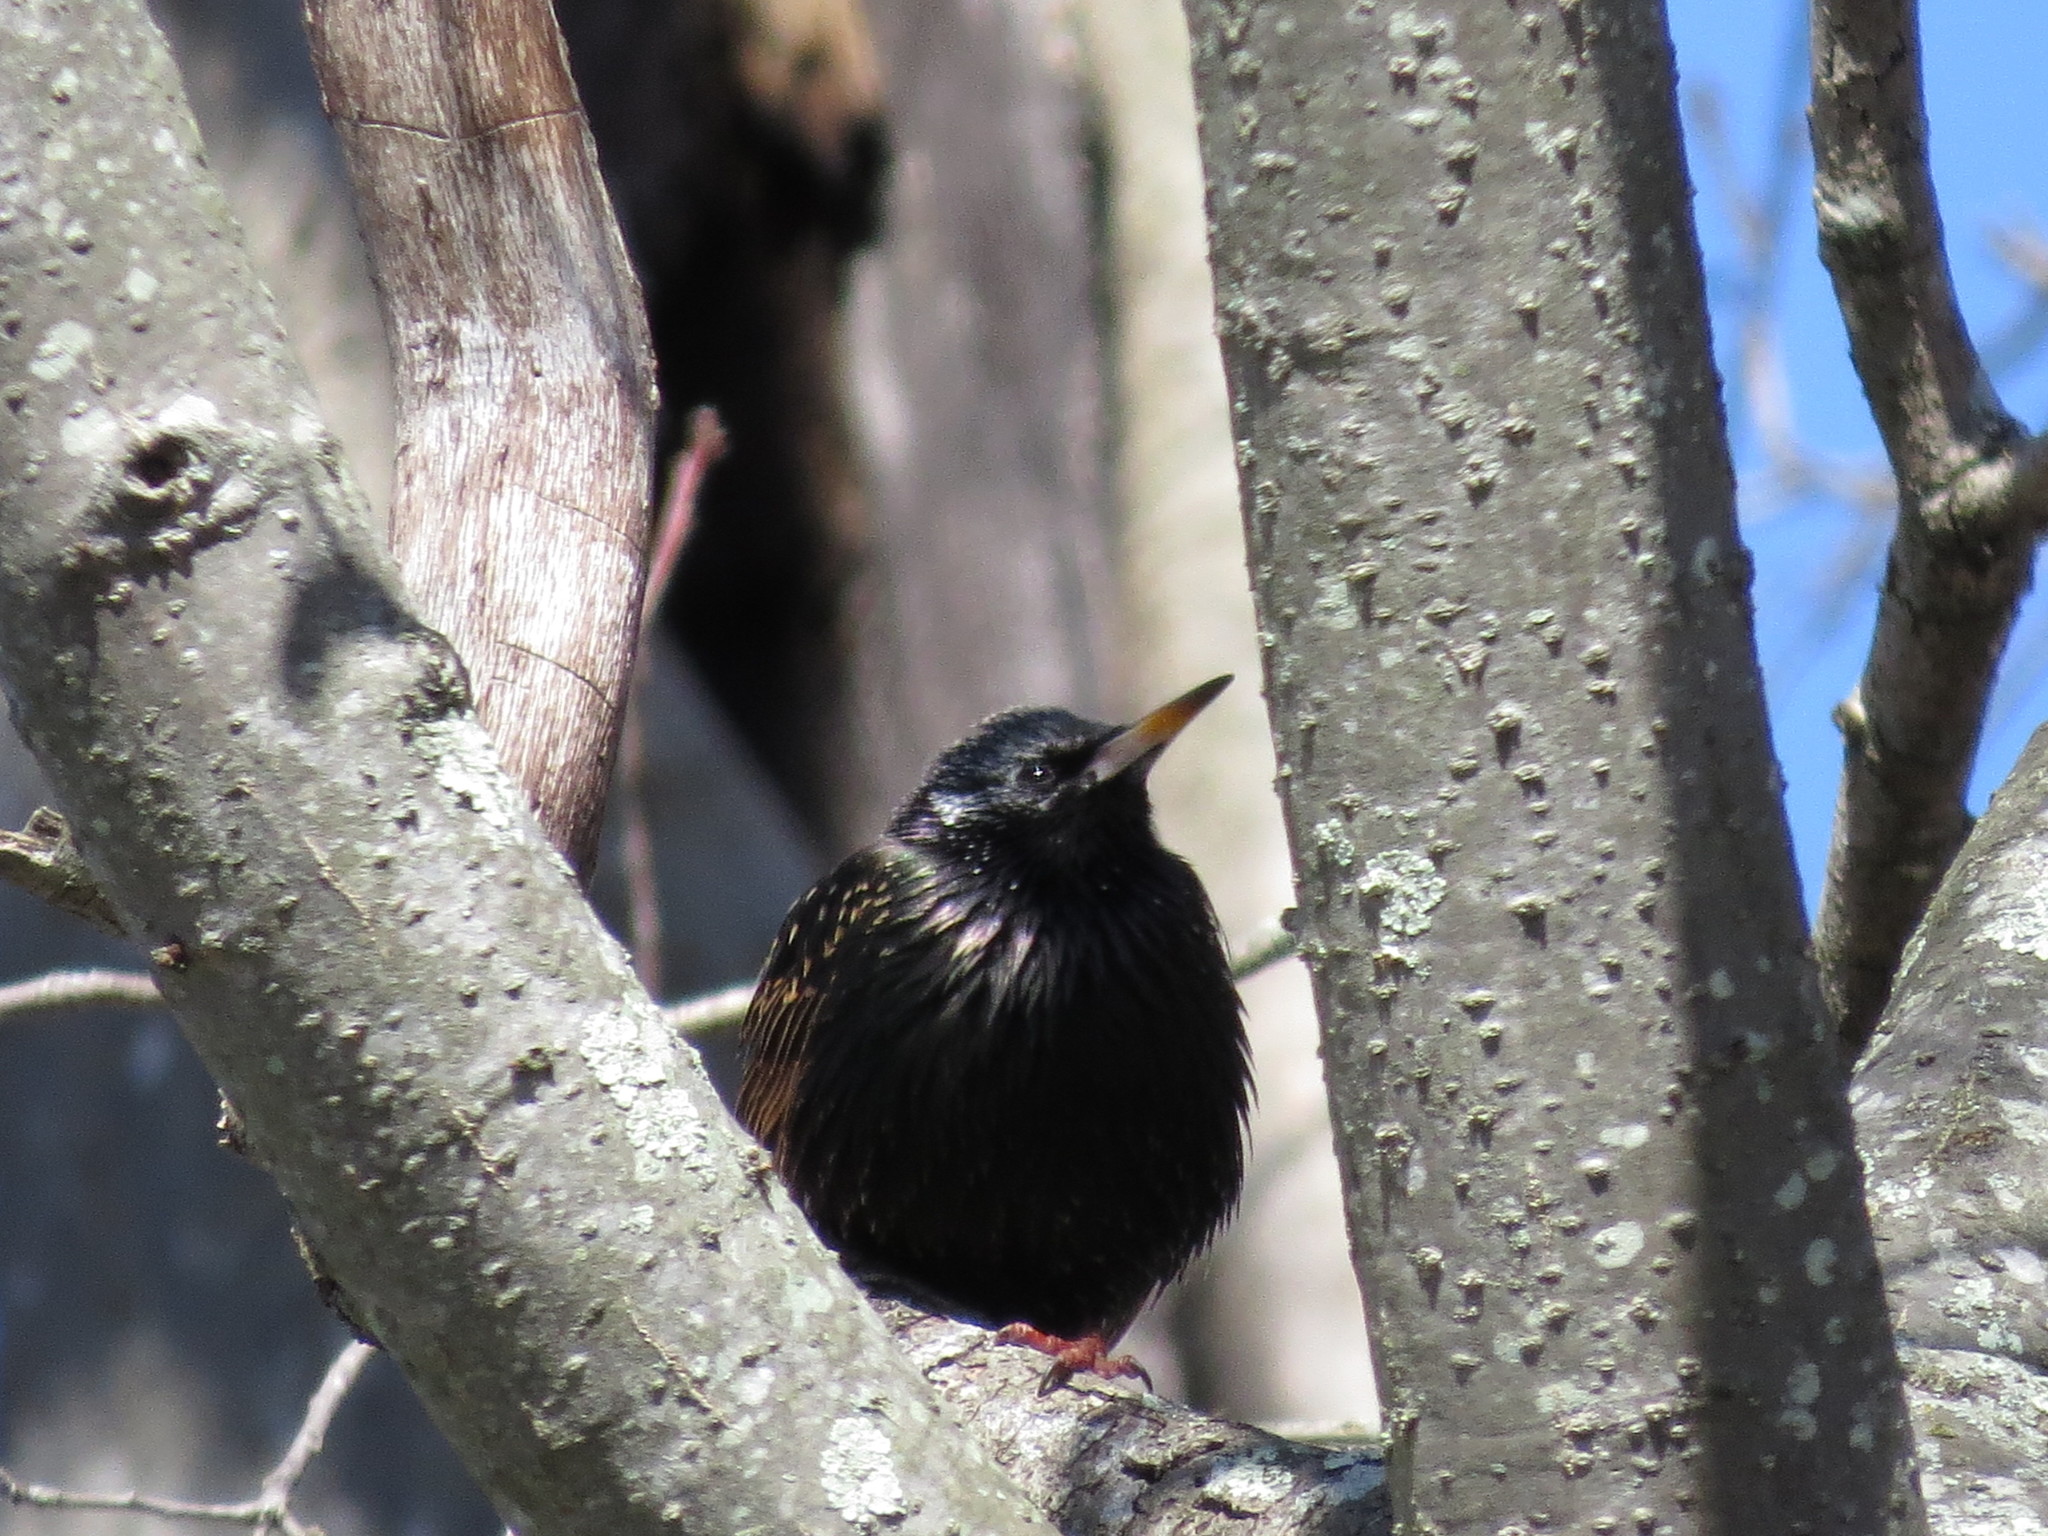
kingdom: Animalia
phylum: Chordata
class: Aves
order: Passeriformes
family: Sturnidae
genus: Sturnus
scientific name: Sturnus vulgaris
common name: Common starling
